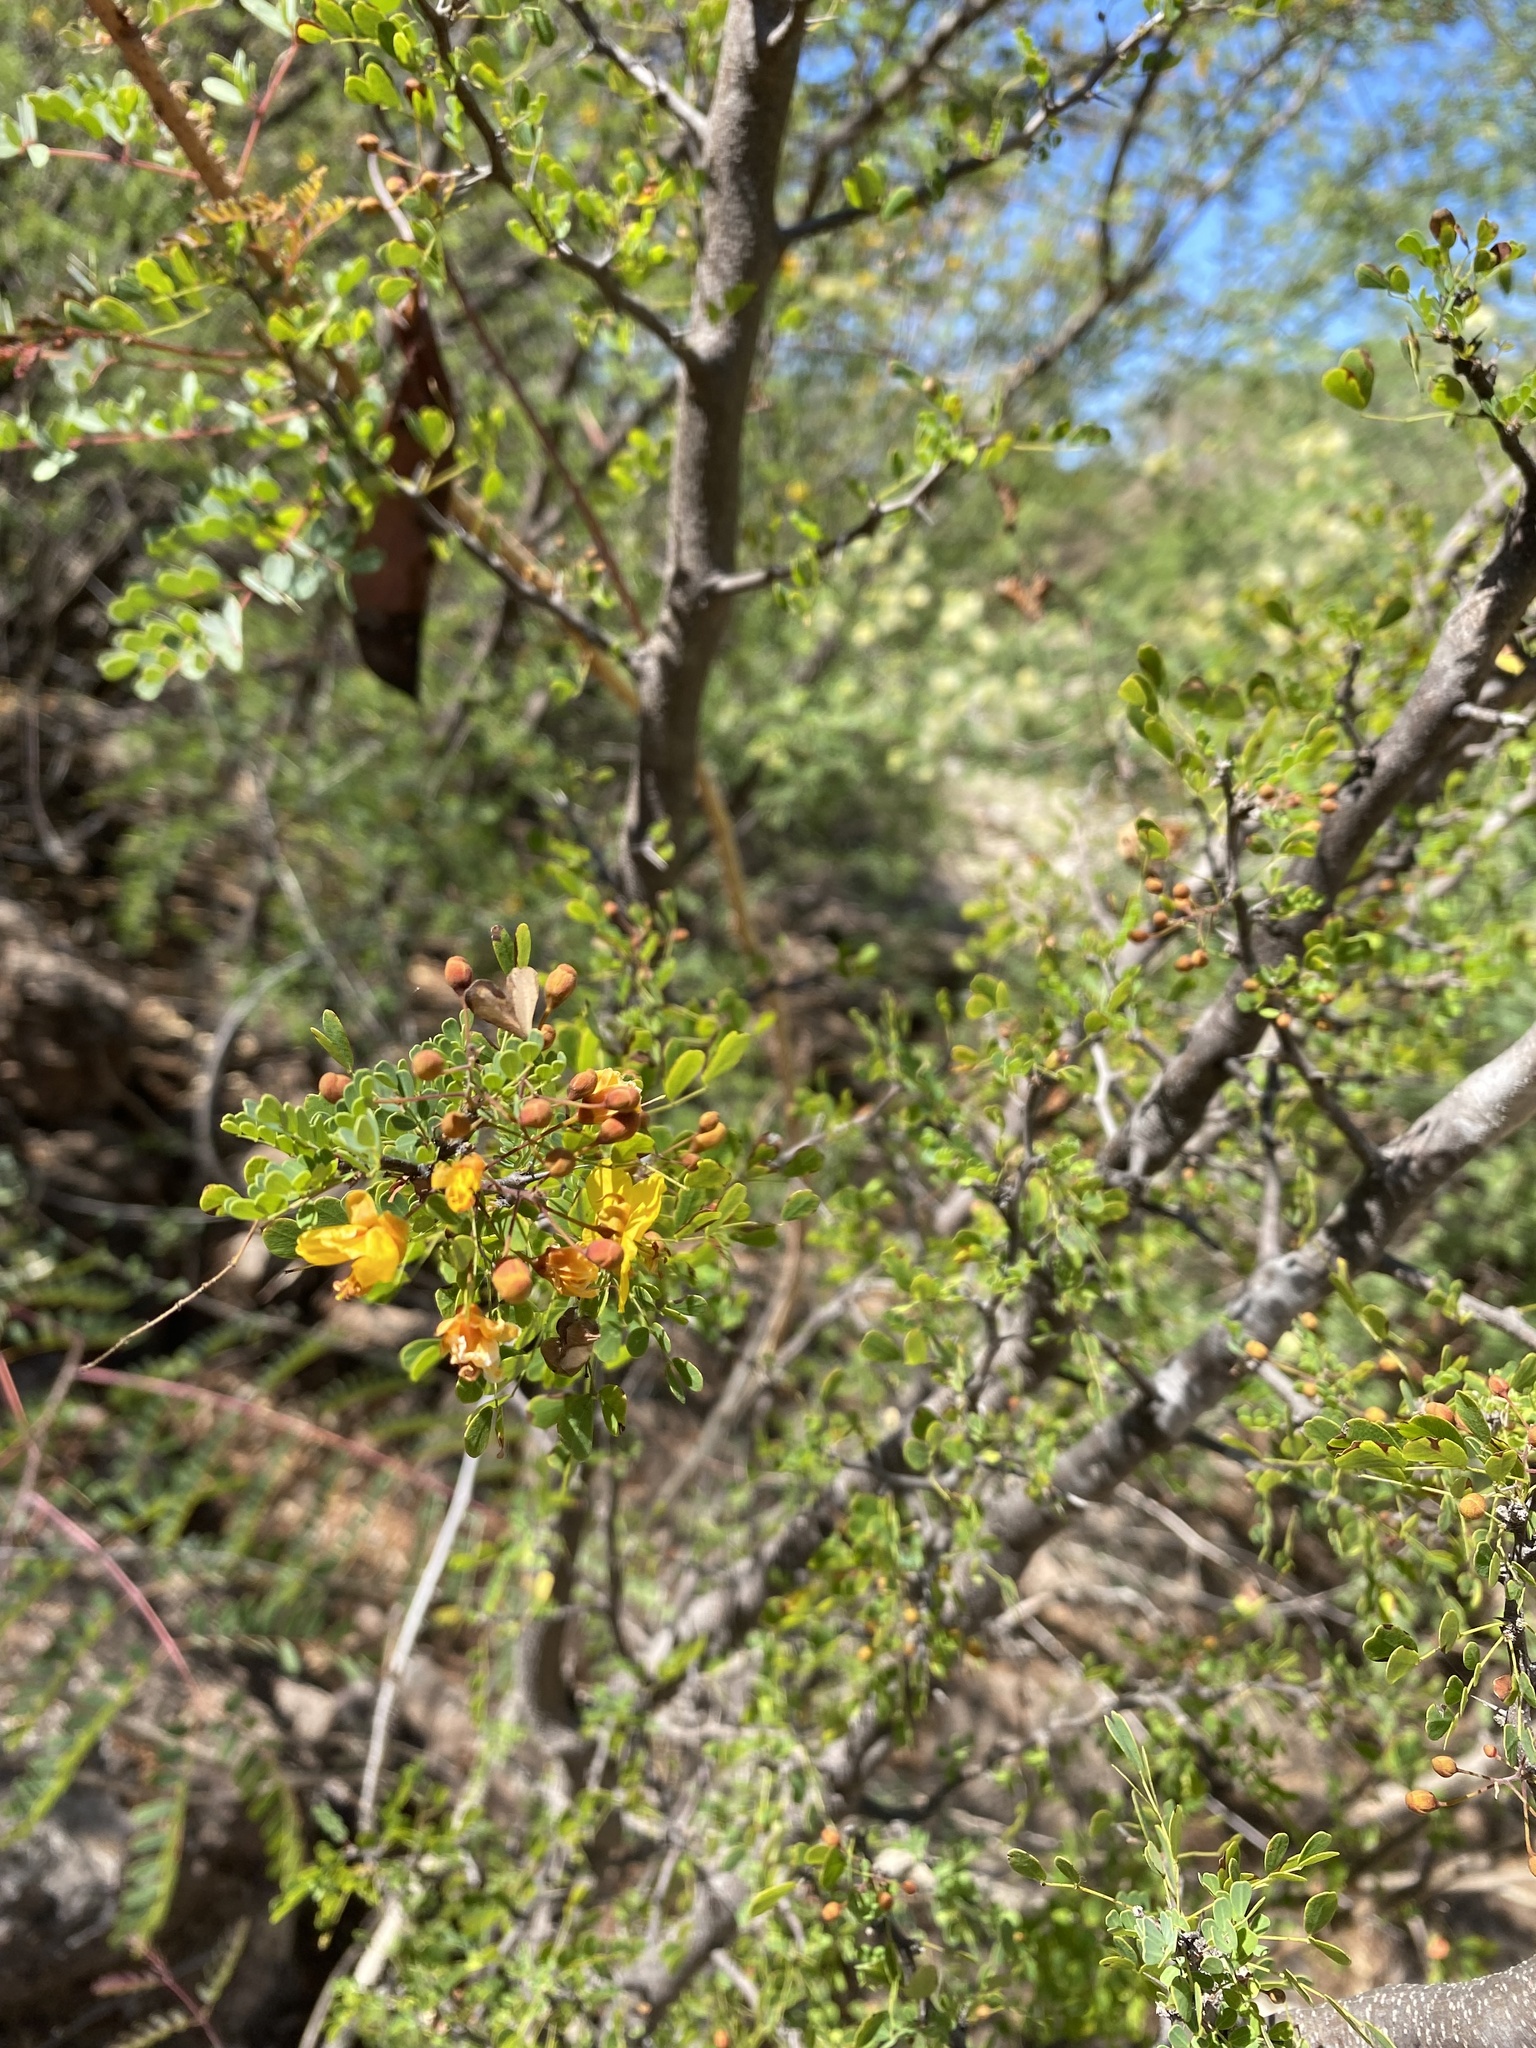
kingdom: Plantae
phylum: Tracheophyta
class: Magnoliopsida
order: Fabales
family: Fabaceae
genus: Haematoxylum
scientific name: Haematoxylum brasiletto
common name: Peachwood
